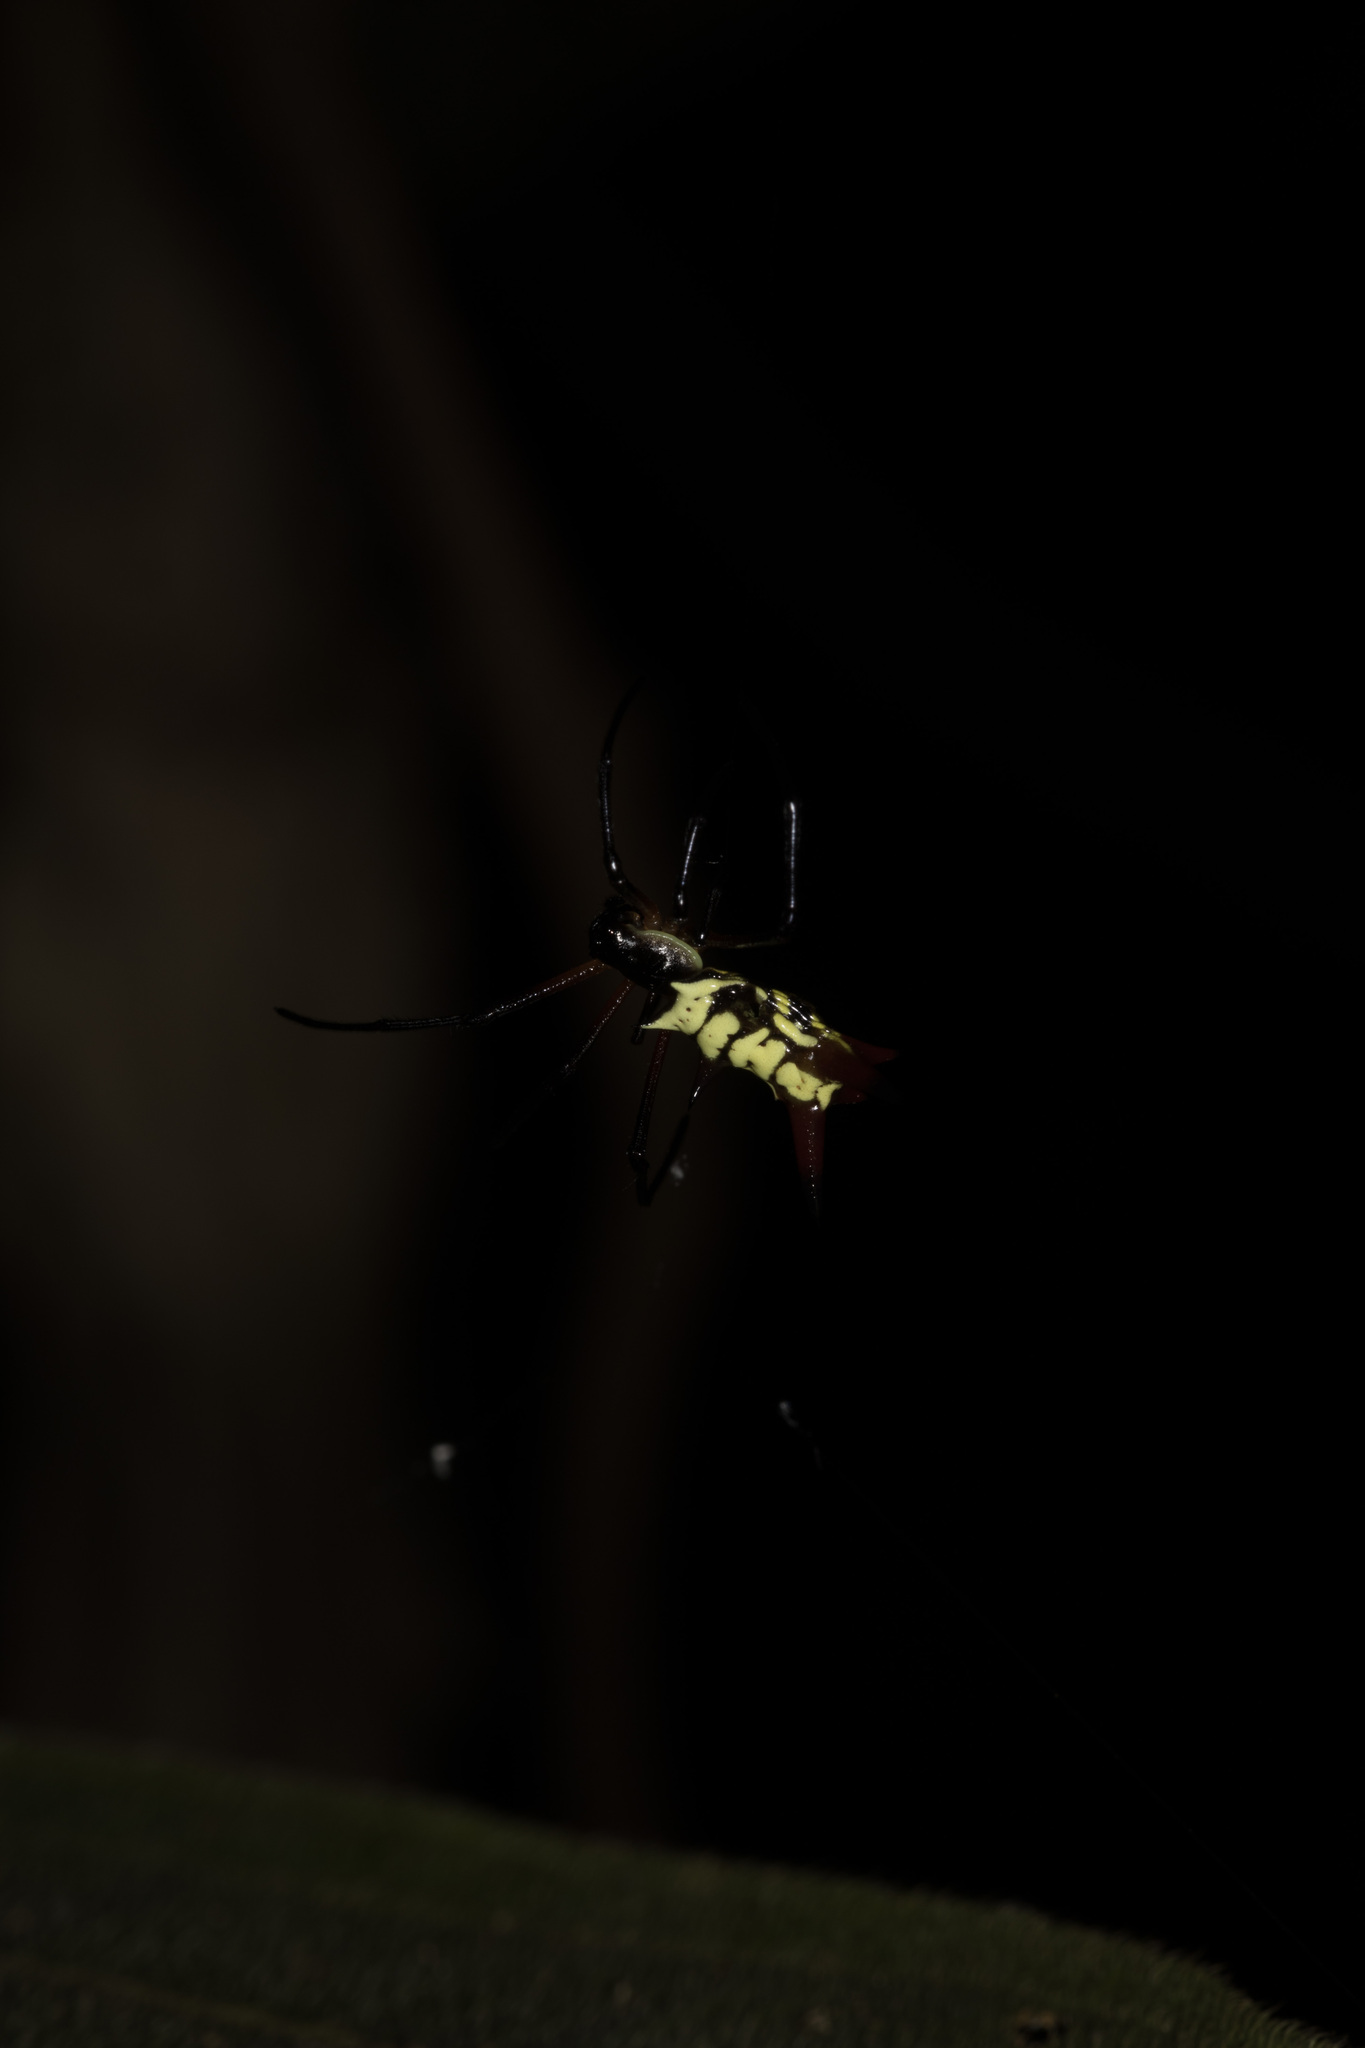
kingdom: Animalia
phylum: Arthropoda
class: Arachnida
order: Araneae
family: Araneidae
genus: Micrathena
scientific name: Micrathena kirbyi
